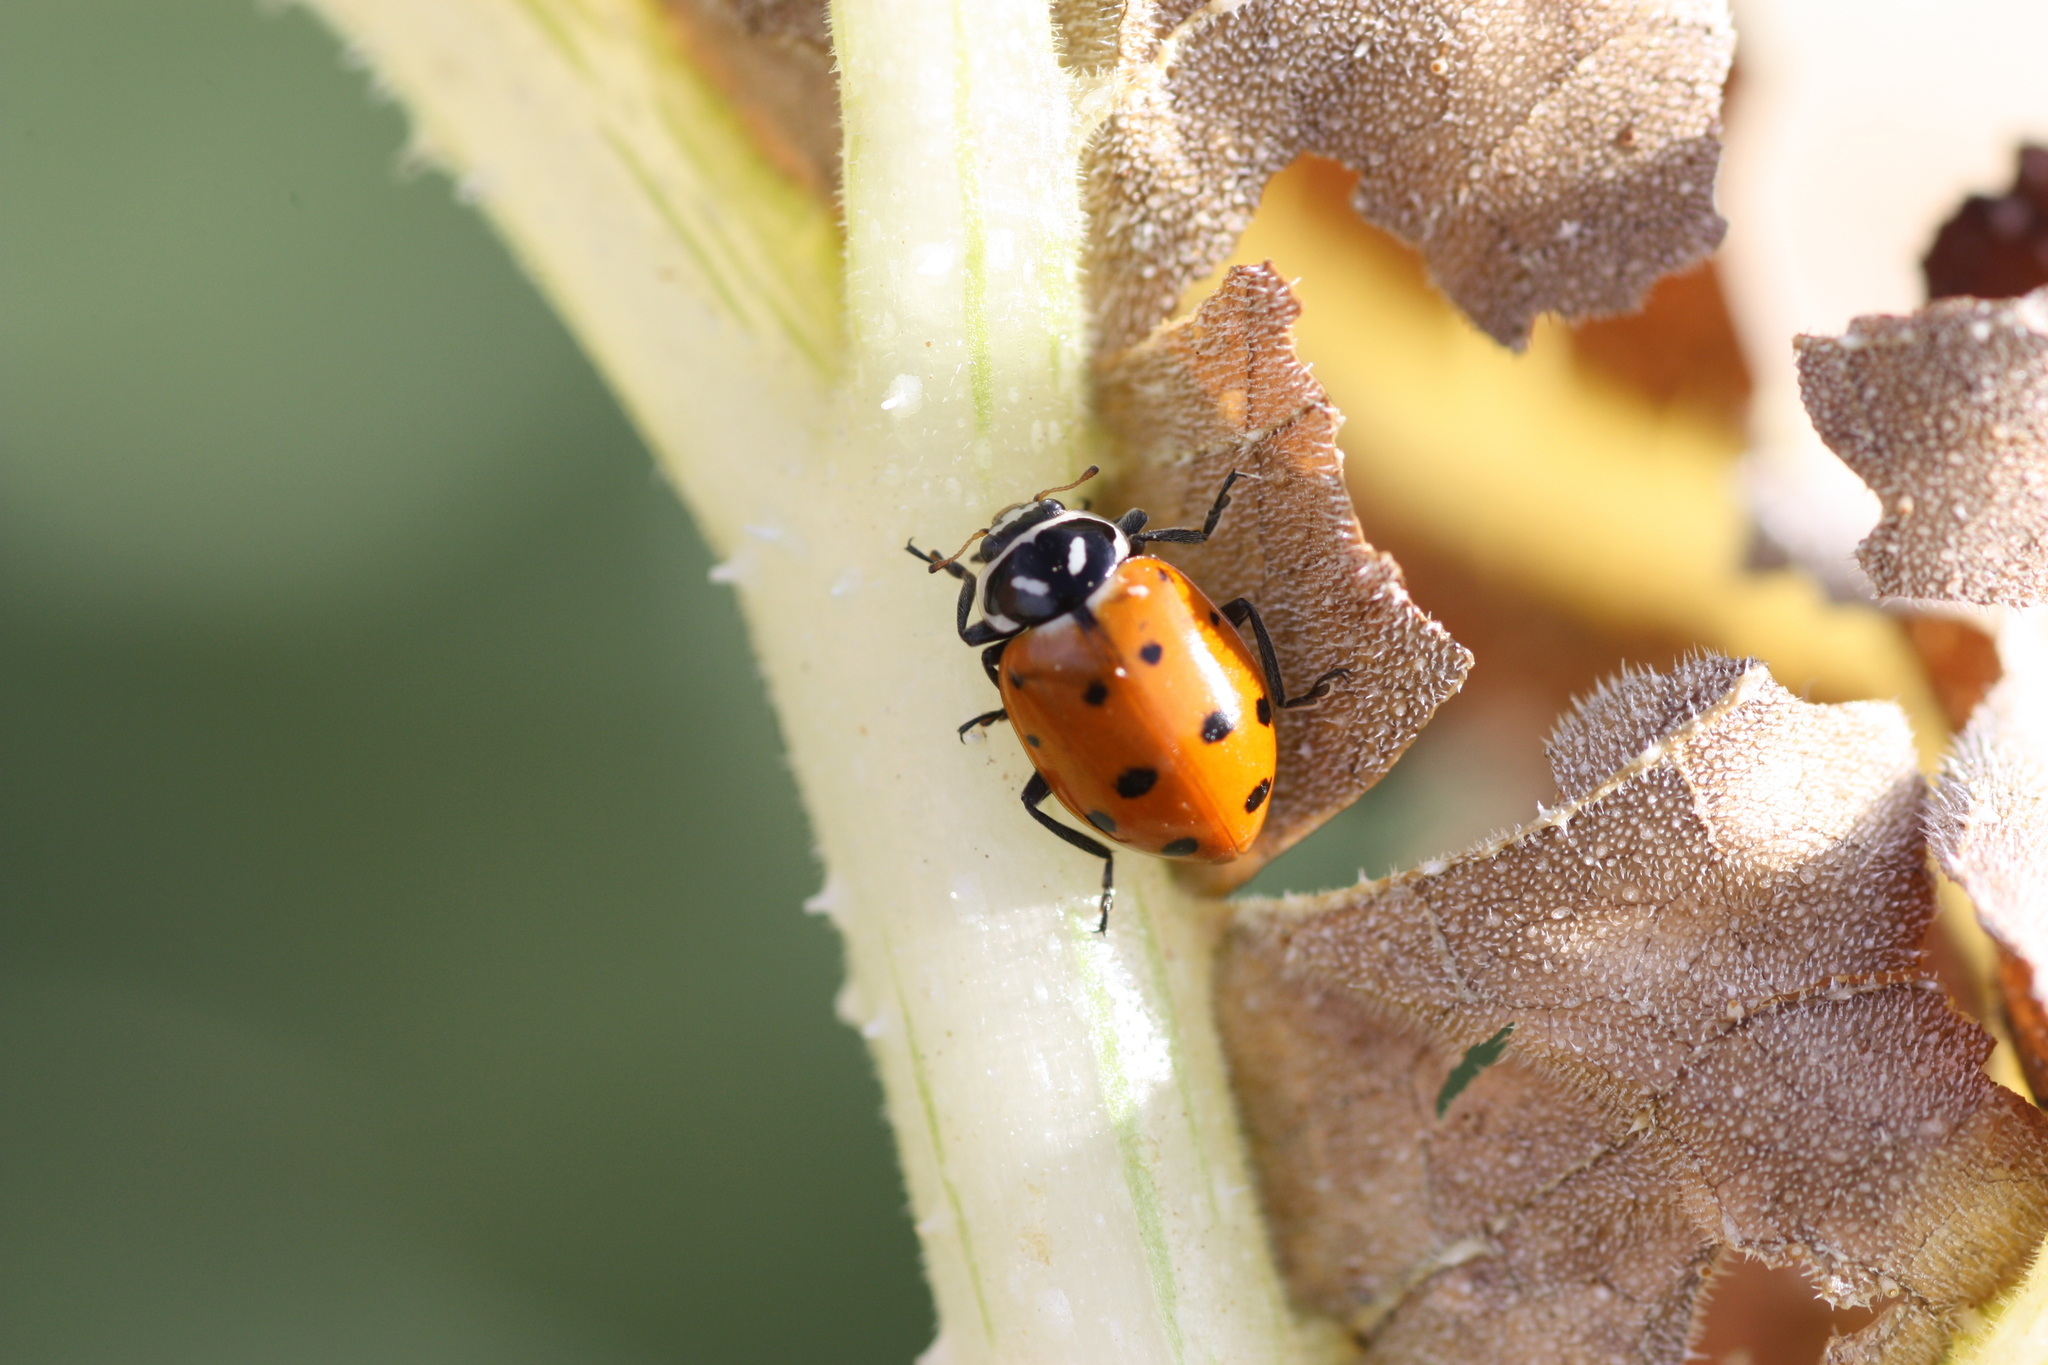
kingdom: Animalia
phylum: Arthropoda
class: Insecta
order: Coleoptera
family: Coccinellidae
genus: Hippodamia
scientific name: Hippodamia convergens
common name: Convergent lady beetle
